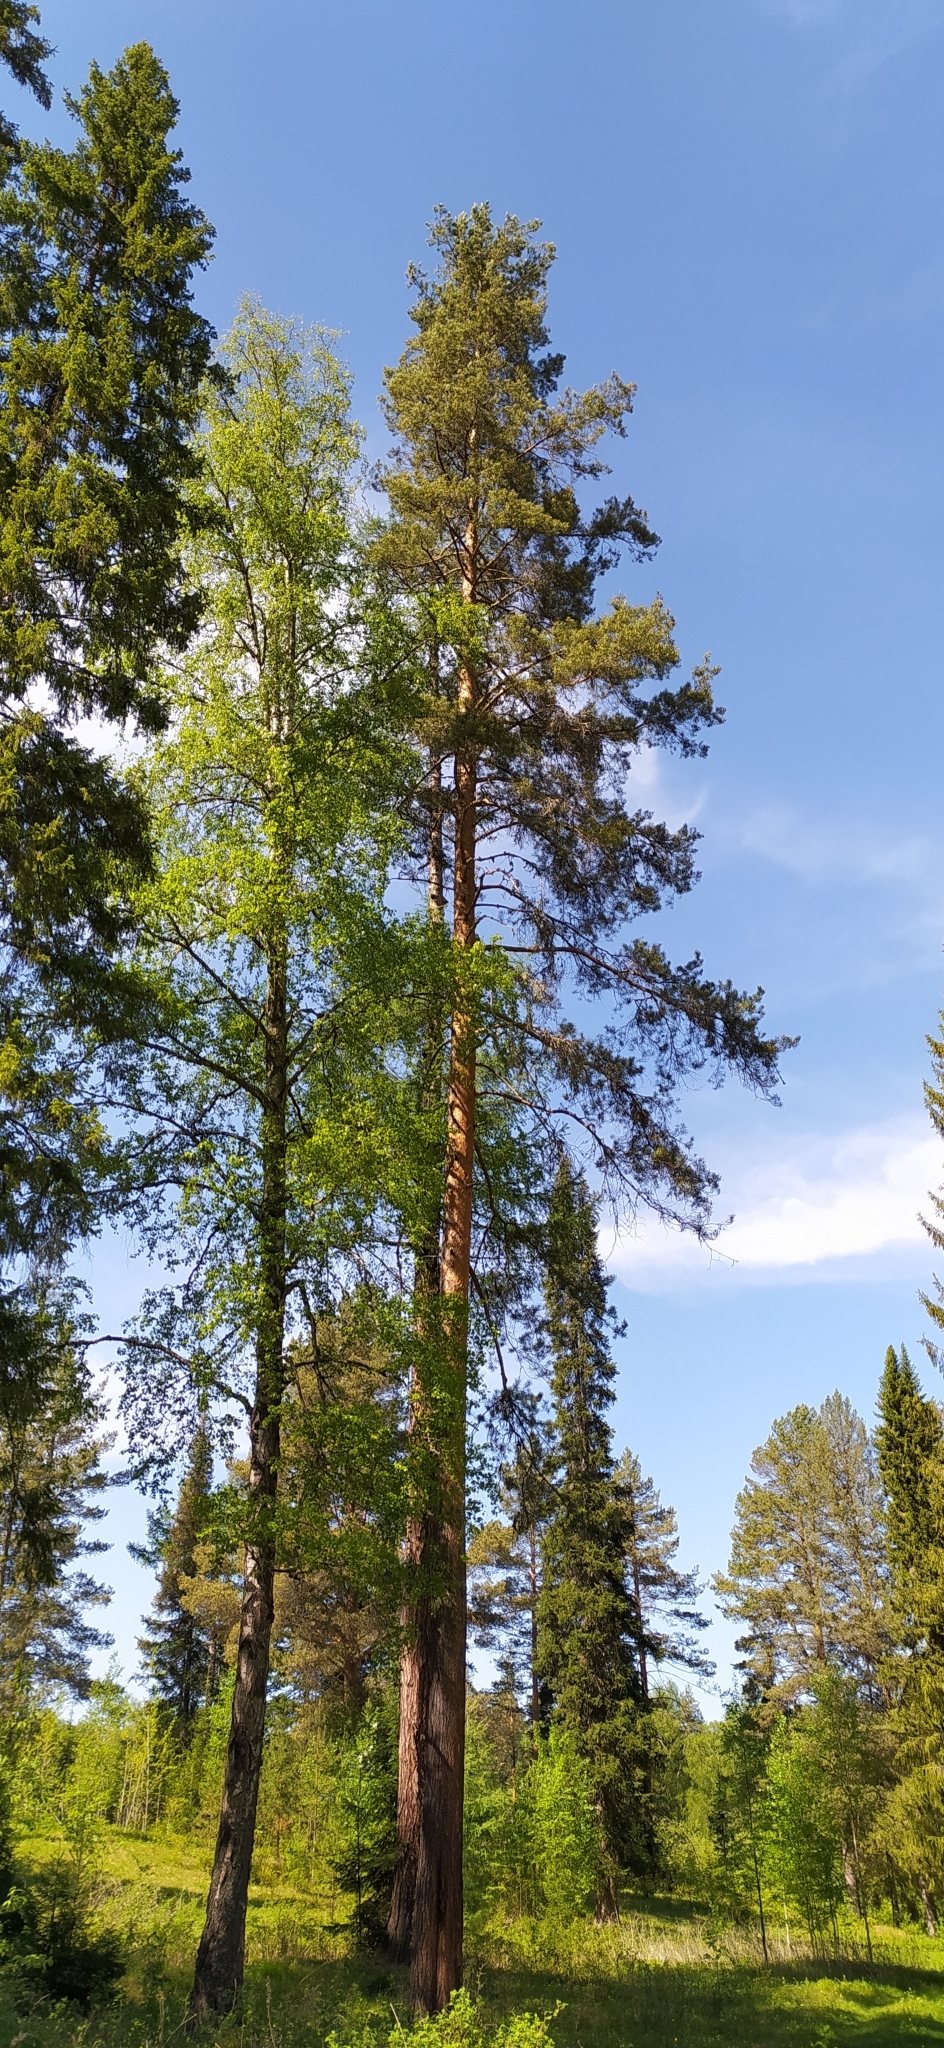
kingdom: Plantae
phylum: Tracheophyta
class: Pinopsida
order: Pinales
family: Pinaceae
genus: Pinus
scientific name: Pinus sylvestris
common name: Scots pine
